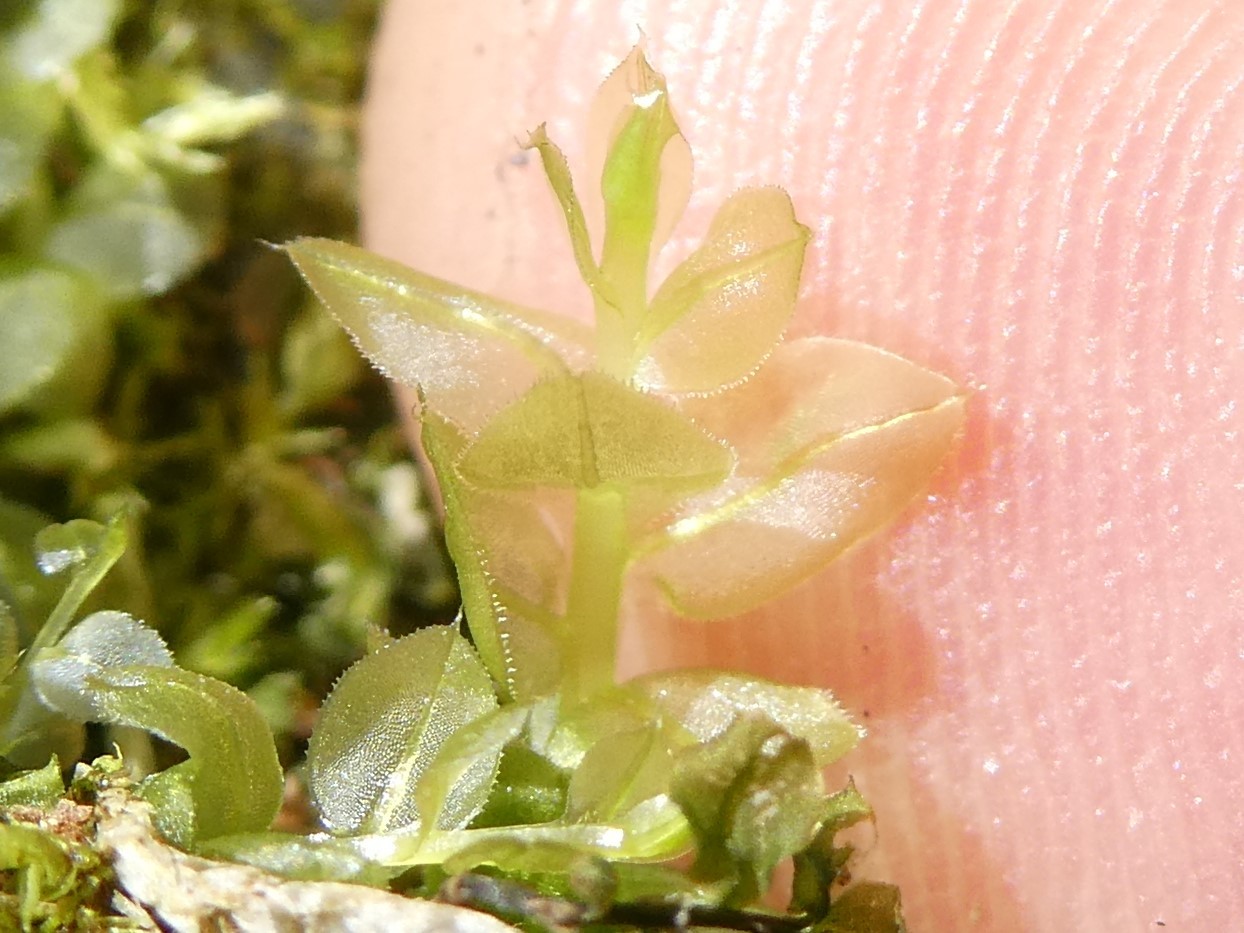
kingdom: Plantae
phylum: Bryophyta
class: Bryopsida
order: Bryales
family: Mniaceae
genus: Plagiomnium
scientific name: Plagiomnium ciliare
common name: Toothed leafy moss
